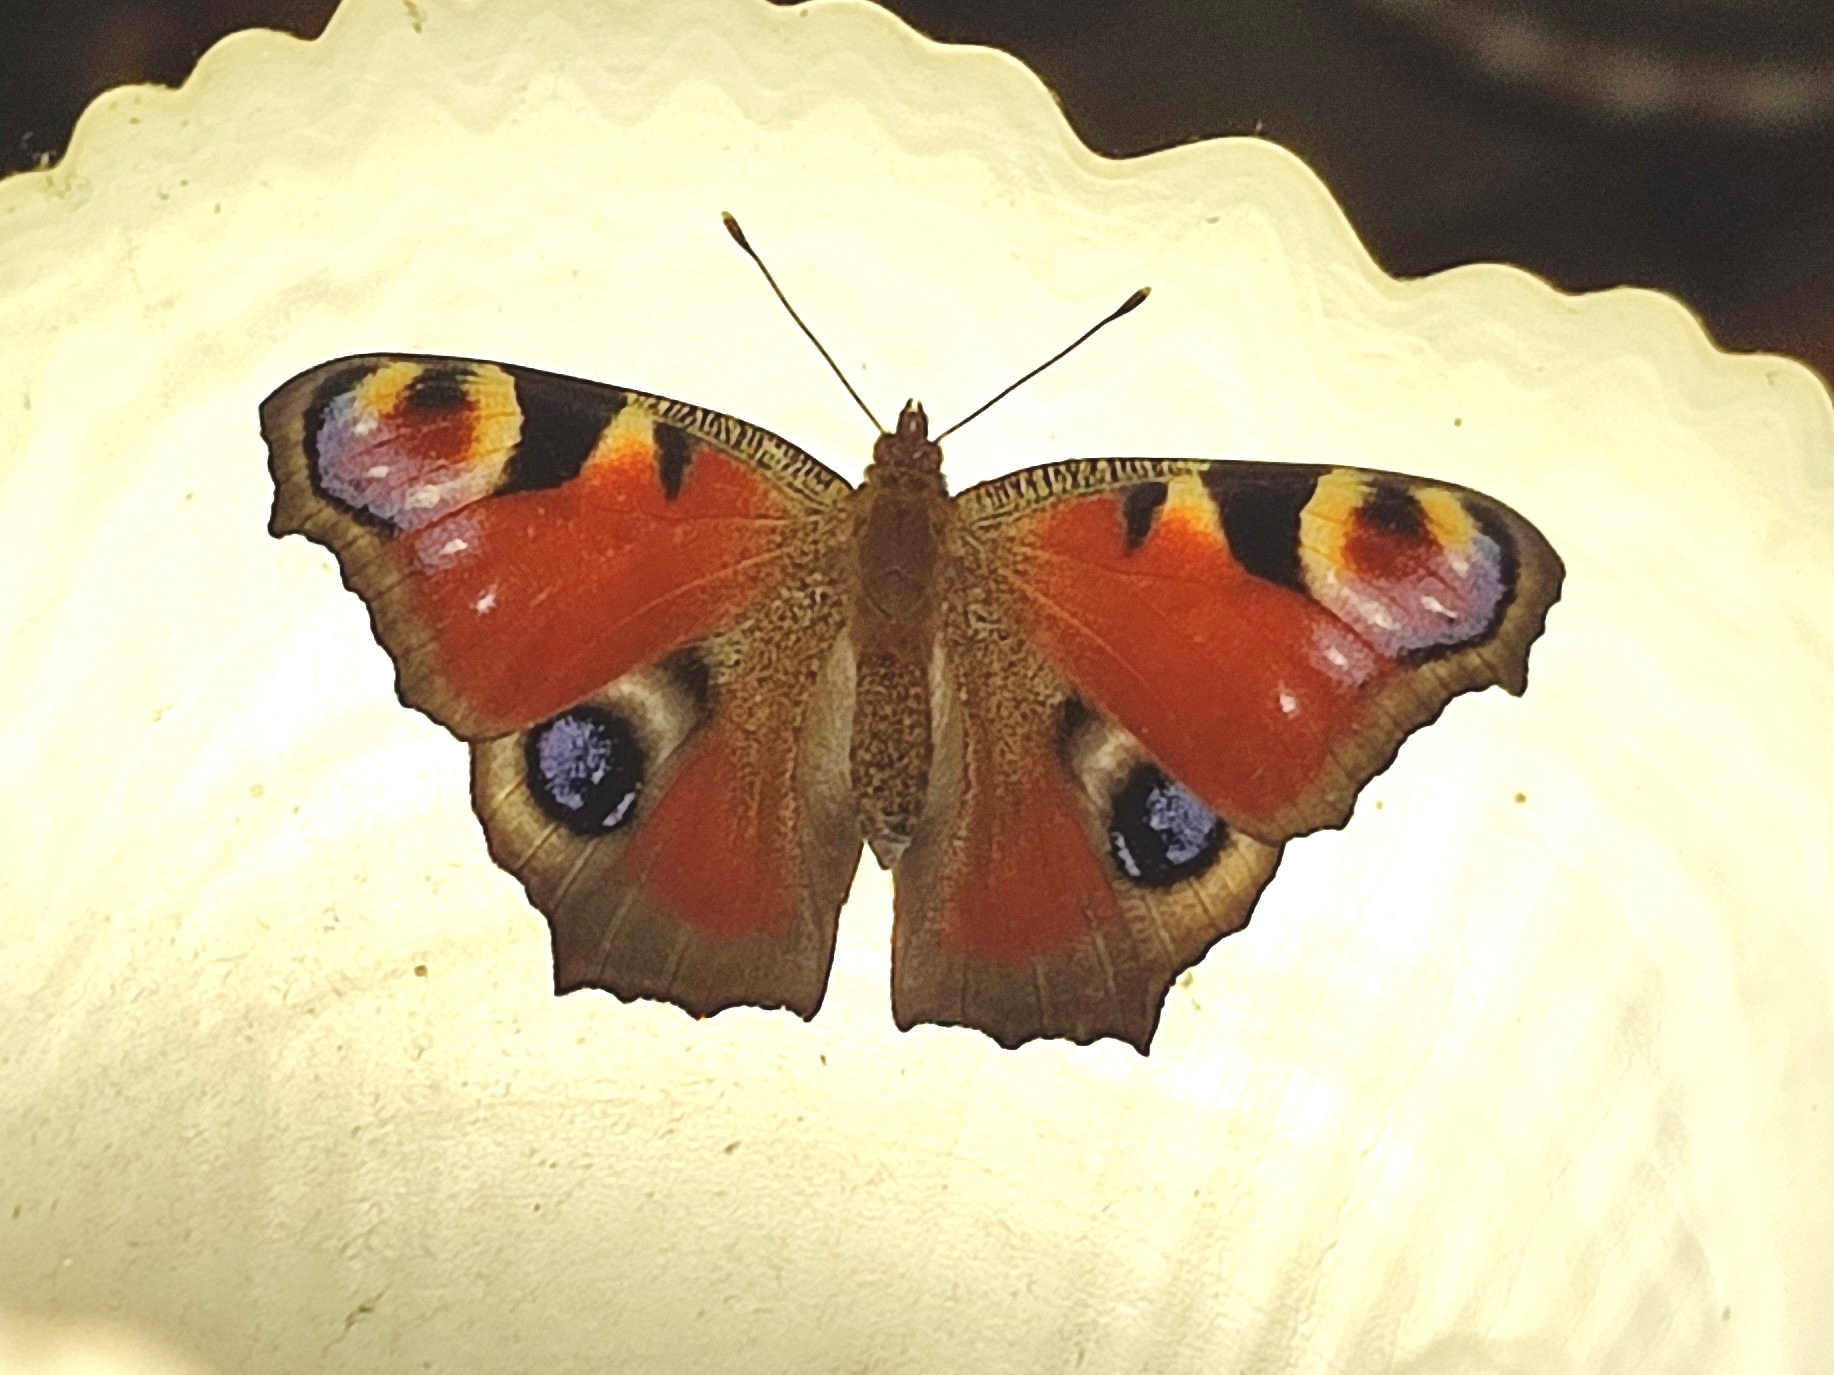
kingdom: Animalia
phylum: Arthropoda
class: Insecta
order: Lepidoptera
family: Nymphalidae
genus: Aglais
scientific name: Aglais io
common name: Peacock
